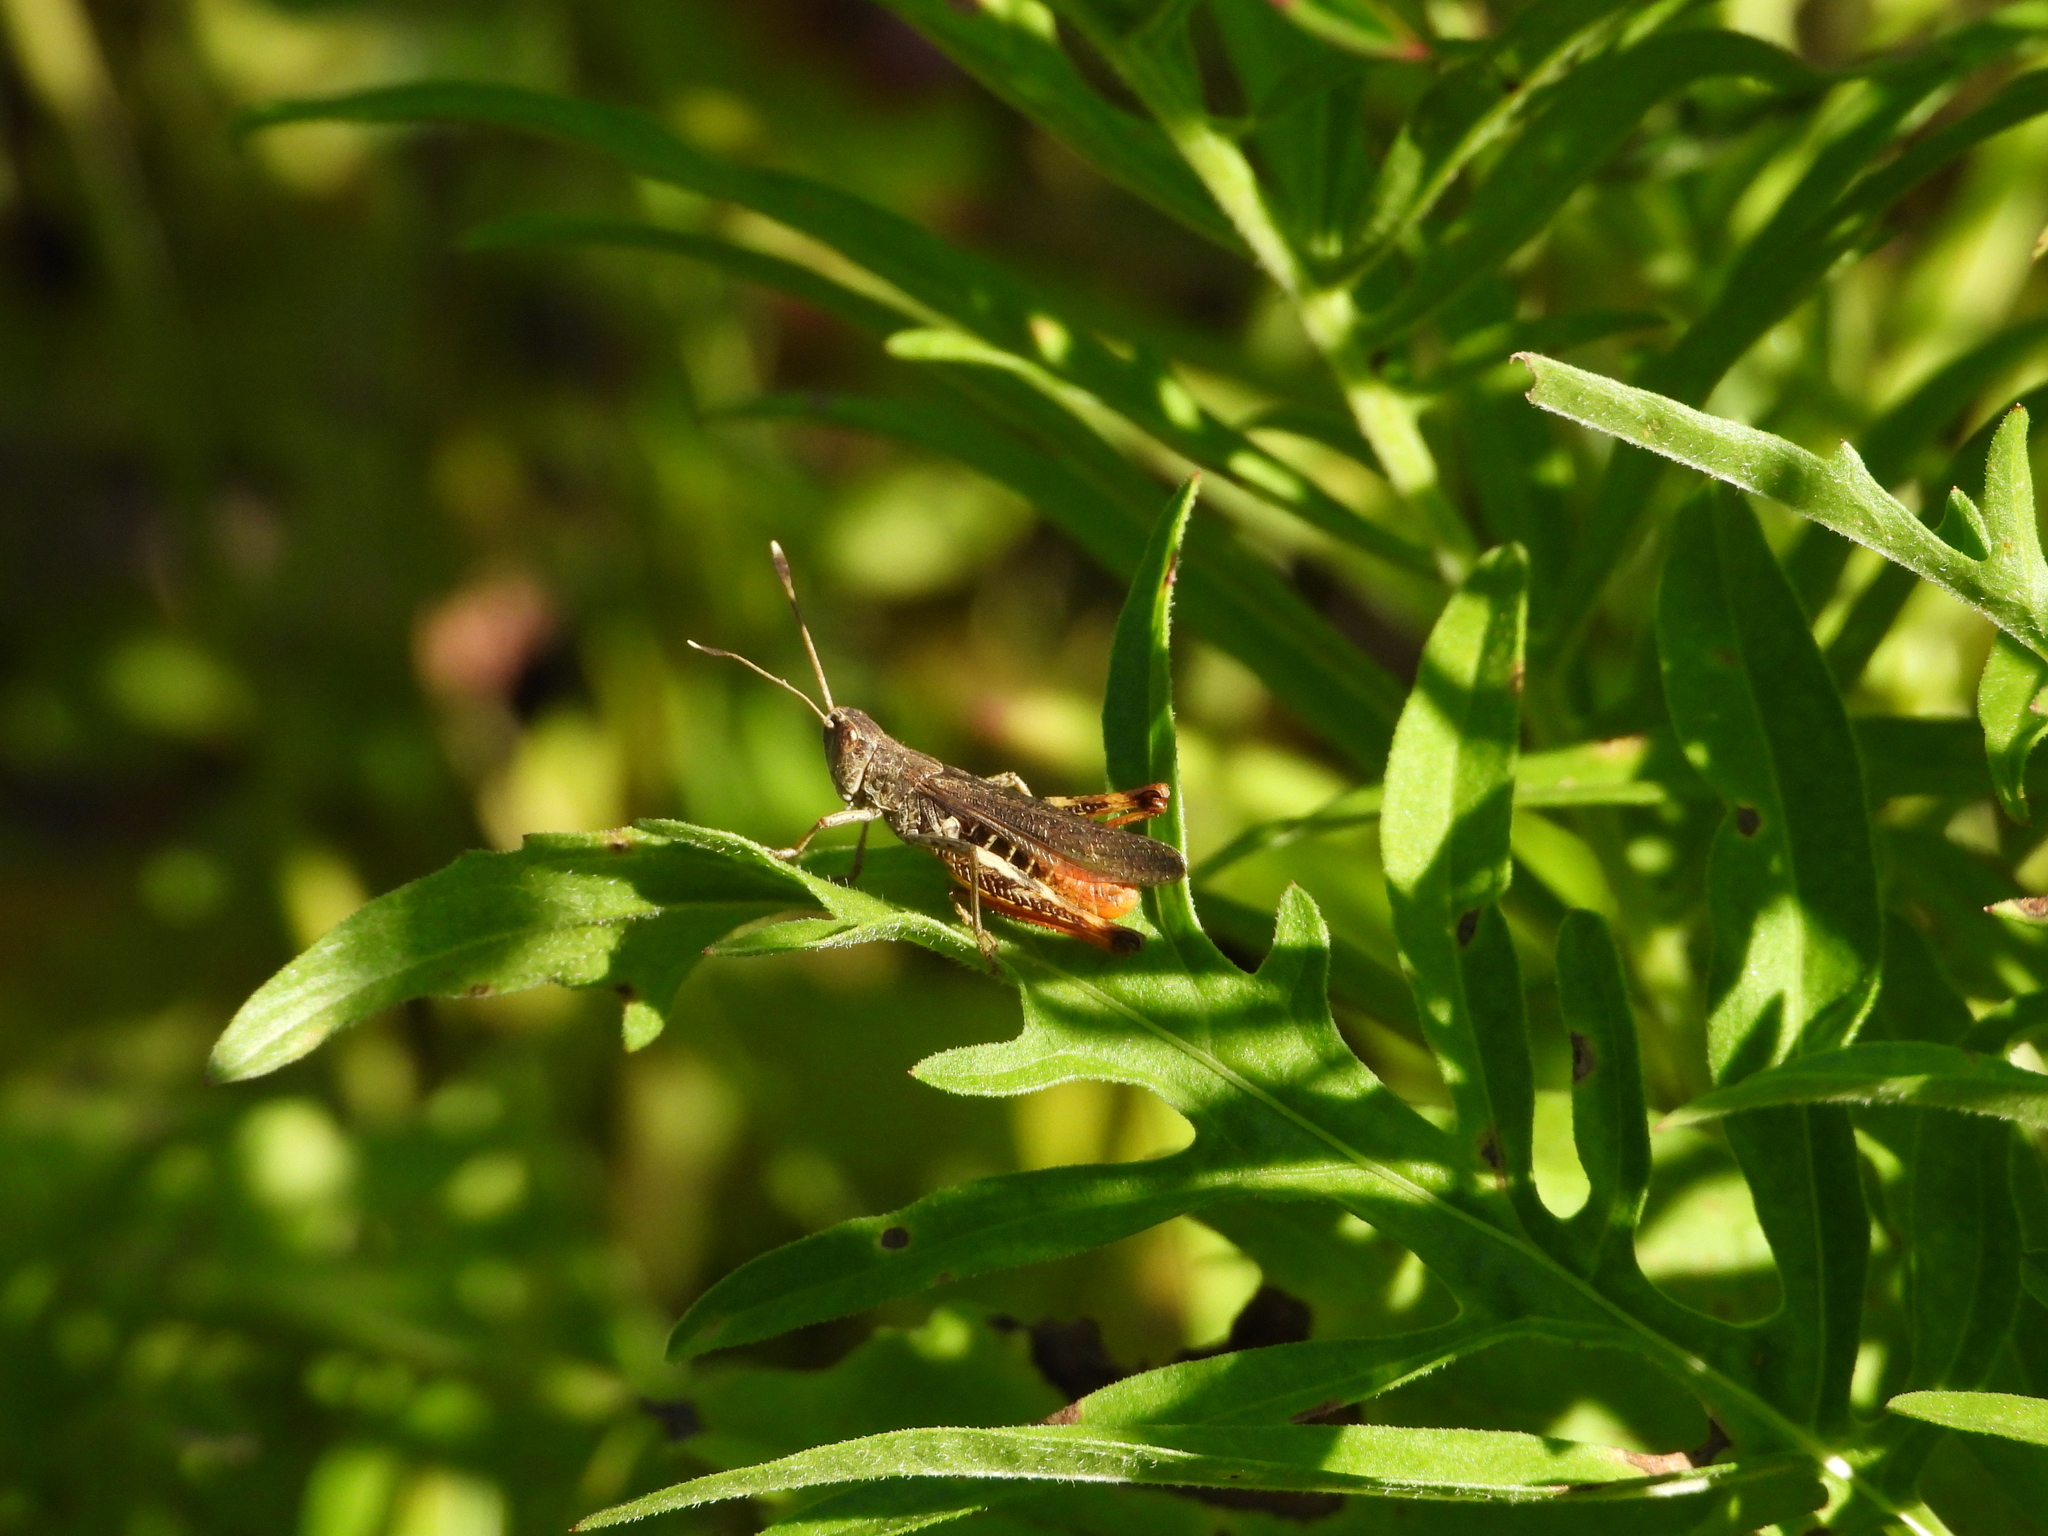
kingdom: Animalia
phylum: Arthropoda
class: Insecta
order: Orthoptera
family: Acrididae
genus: Gomphocerippus
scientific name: Gomphocerippus rufus
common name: Rufous grasshopper
